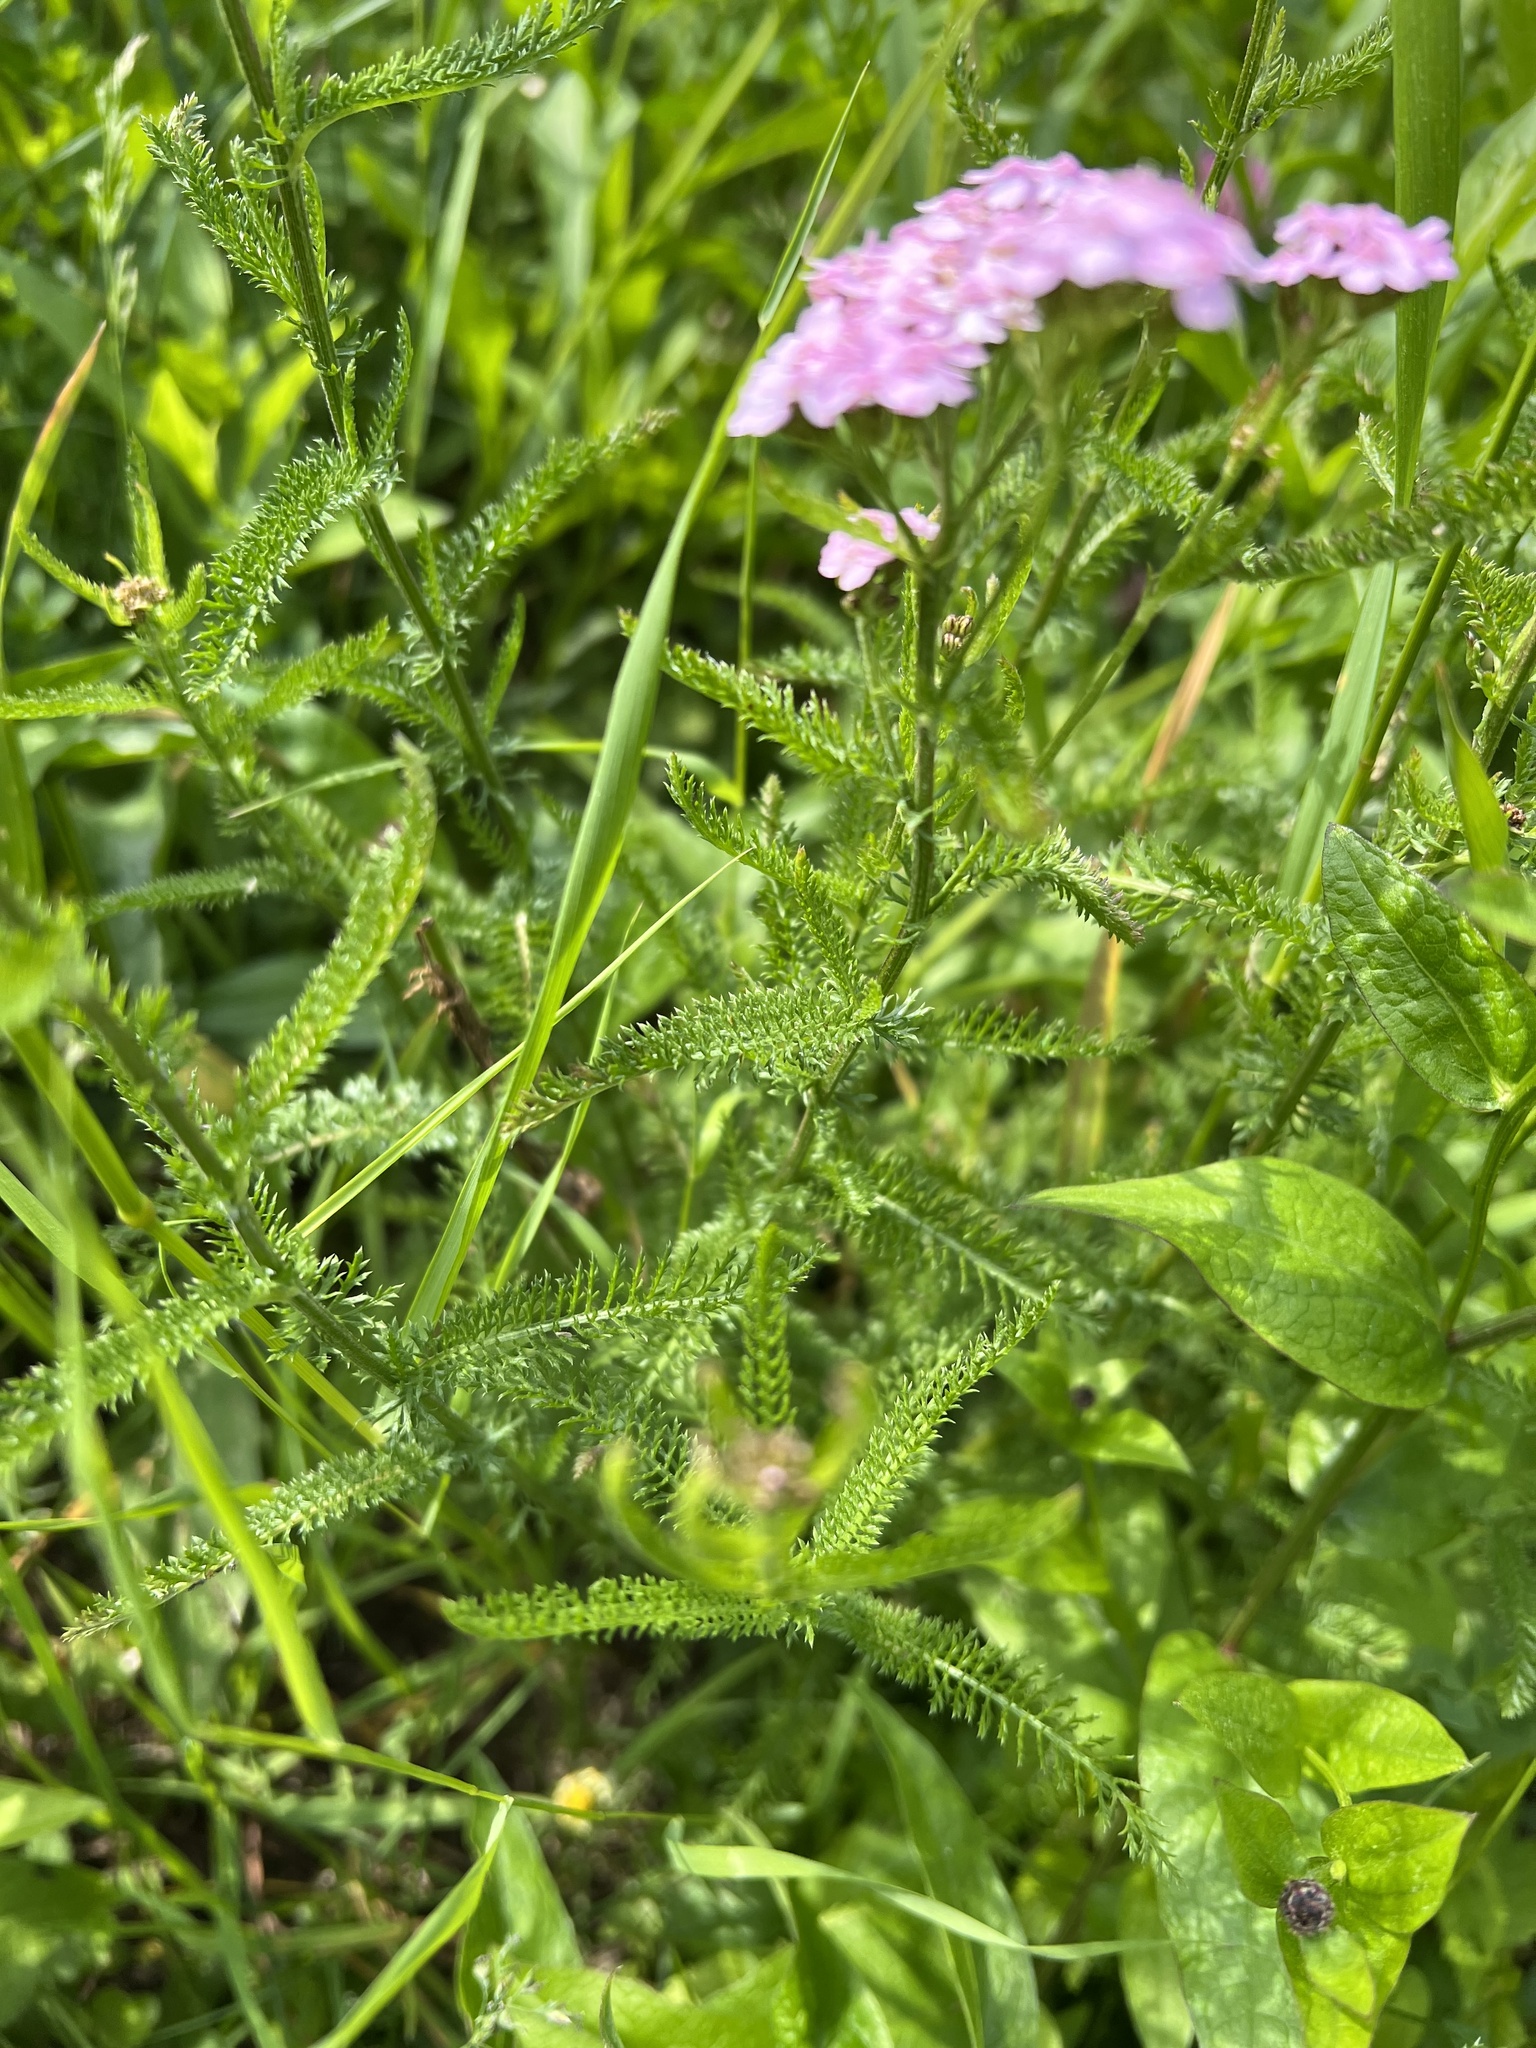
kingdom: Plantae
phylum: Tracheophyta
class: Magnoliopsida
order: Asterales
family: Asteraceae
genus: Achillea
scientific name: Achillea roseoalba
